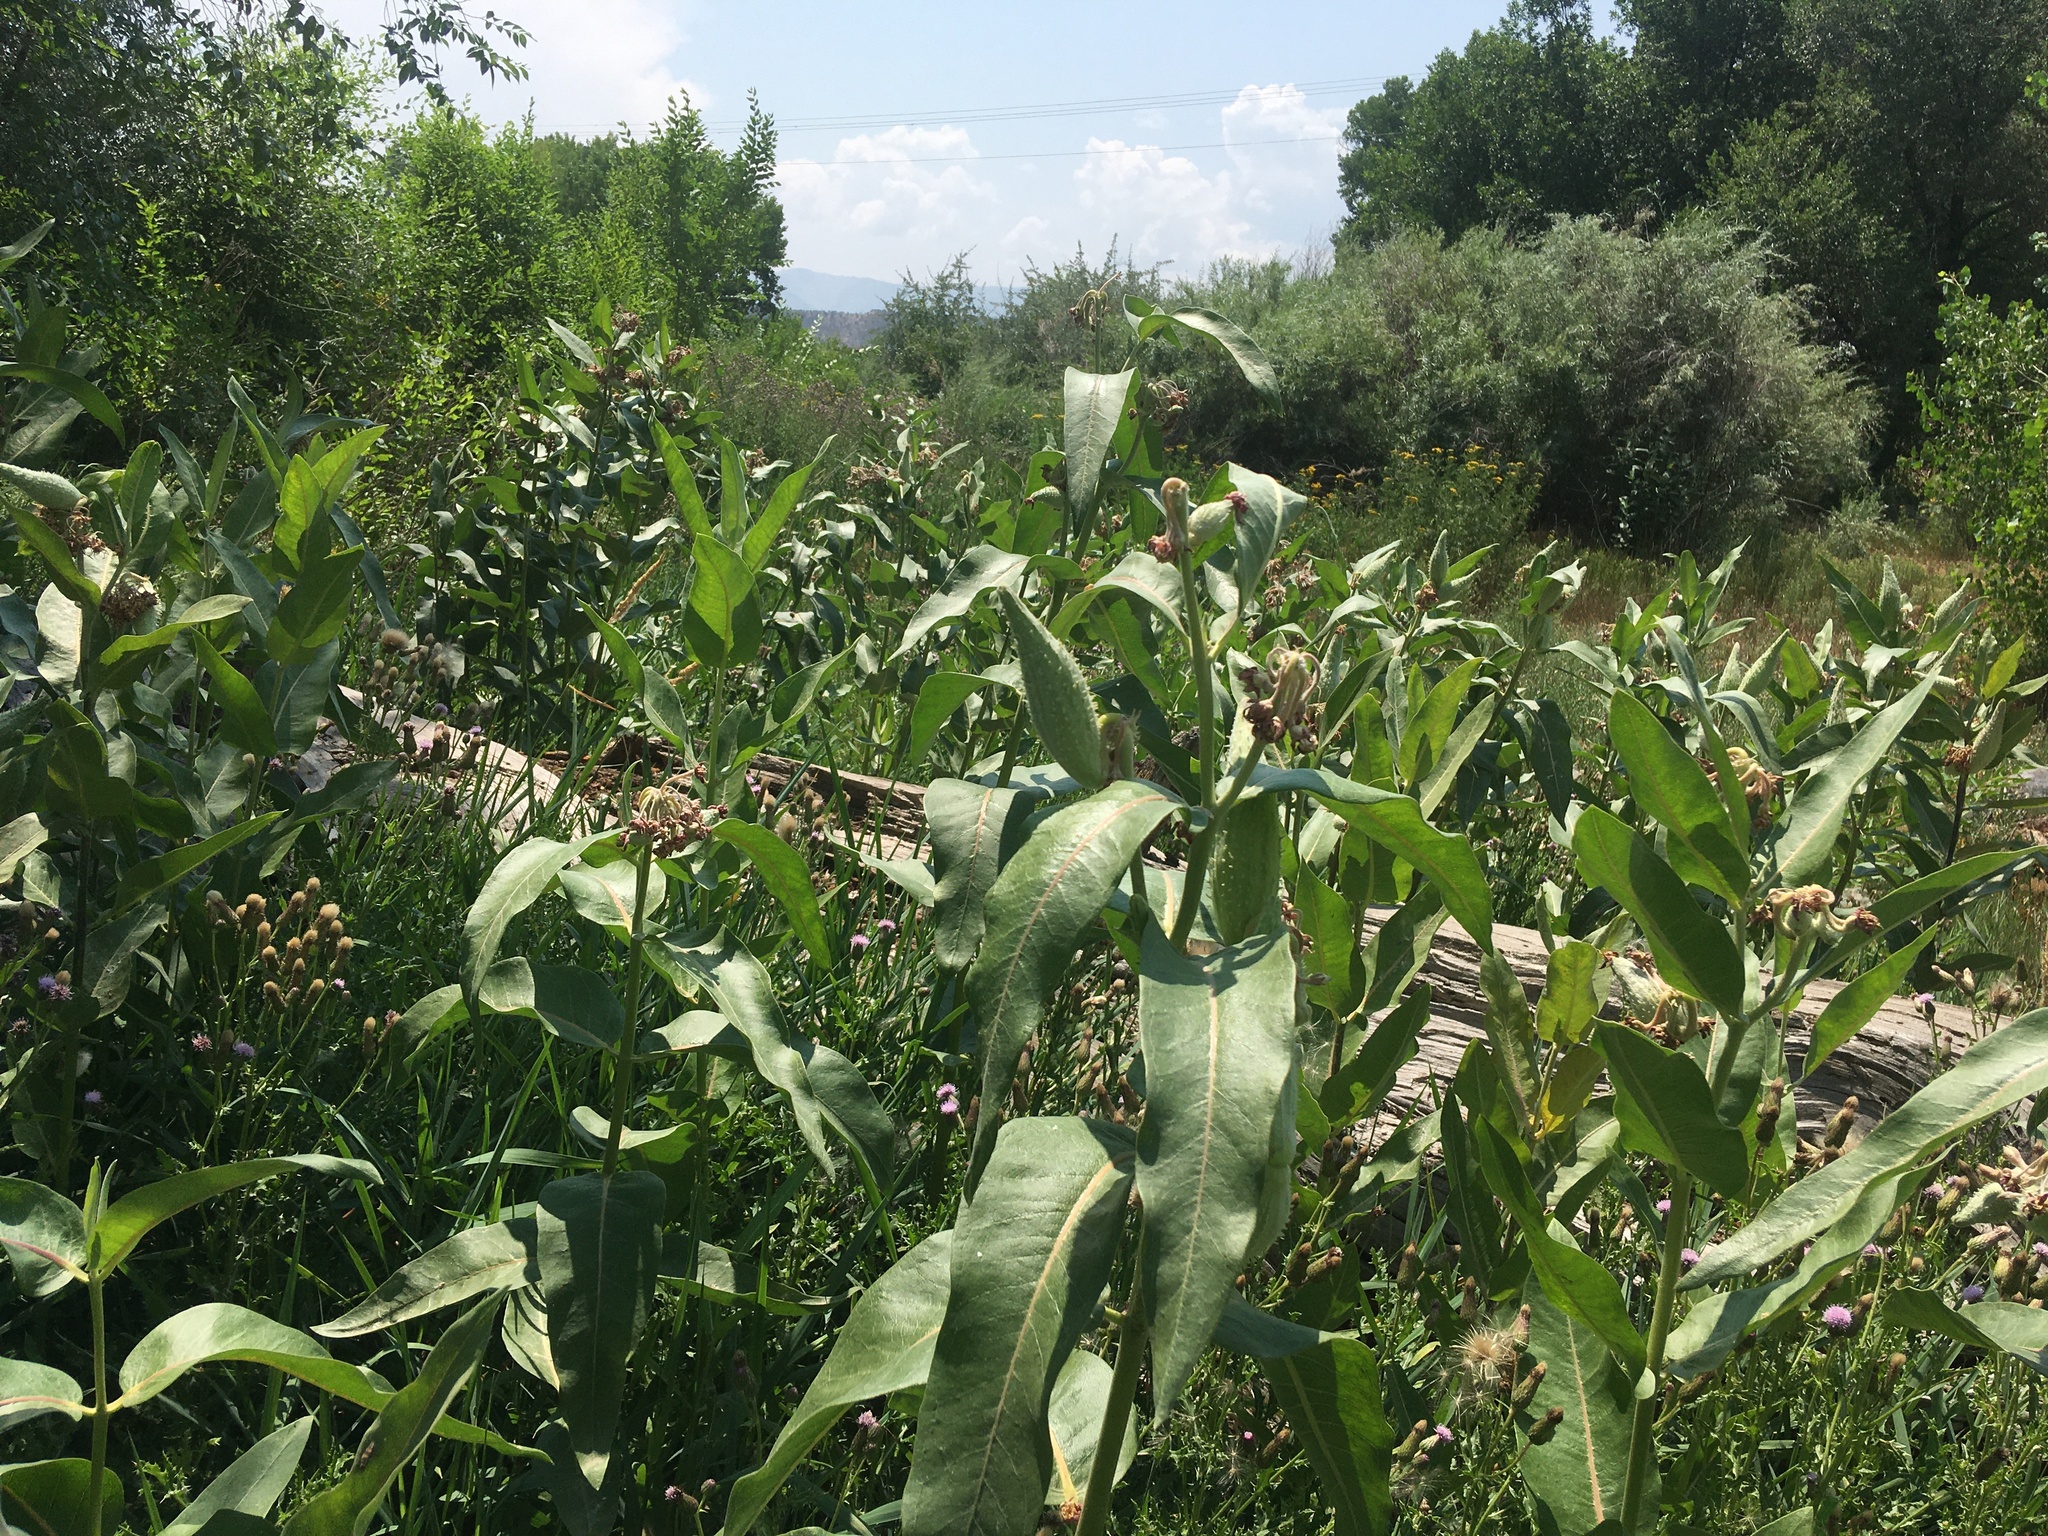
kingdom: Plantae
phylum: Tracheophyta
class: Magnoliopsida
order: Gentianales
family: Apocynaceae
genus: Asclepias
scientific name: Asclepias speciosa
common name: Showy milkweed
